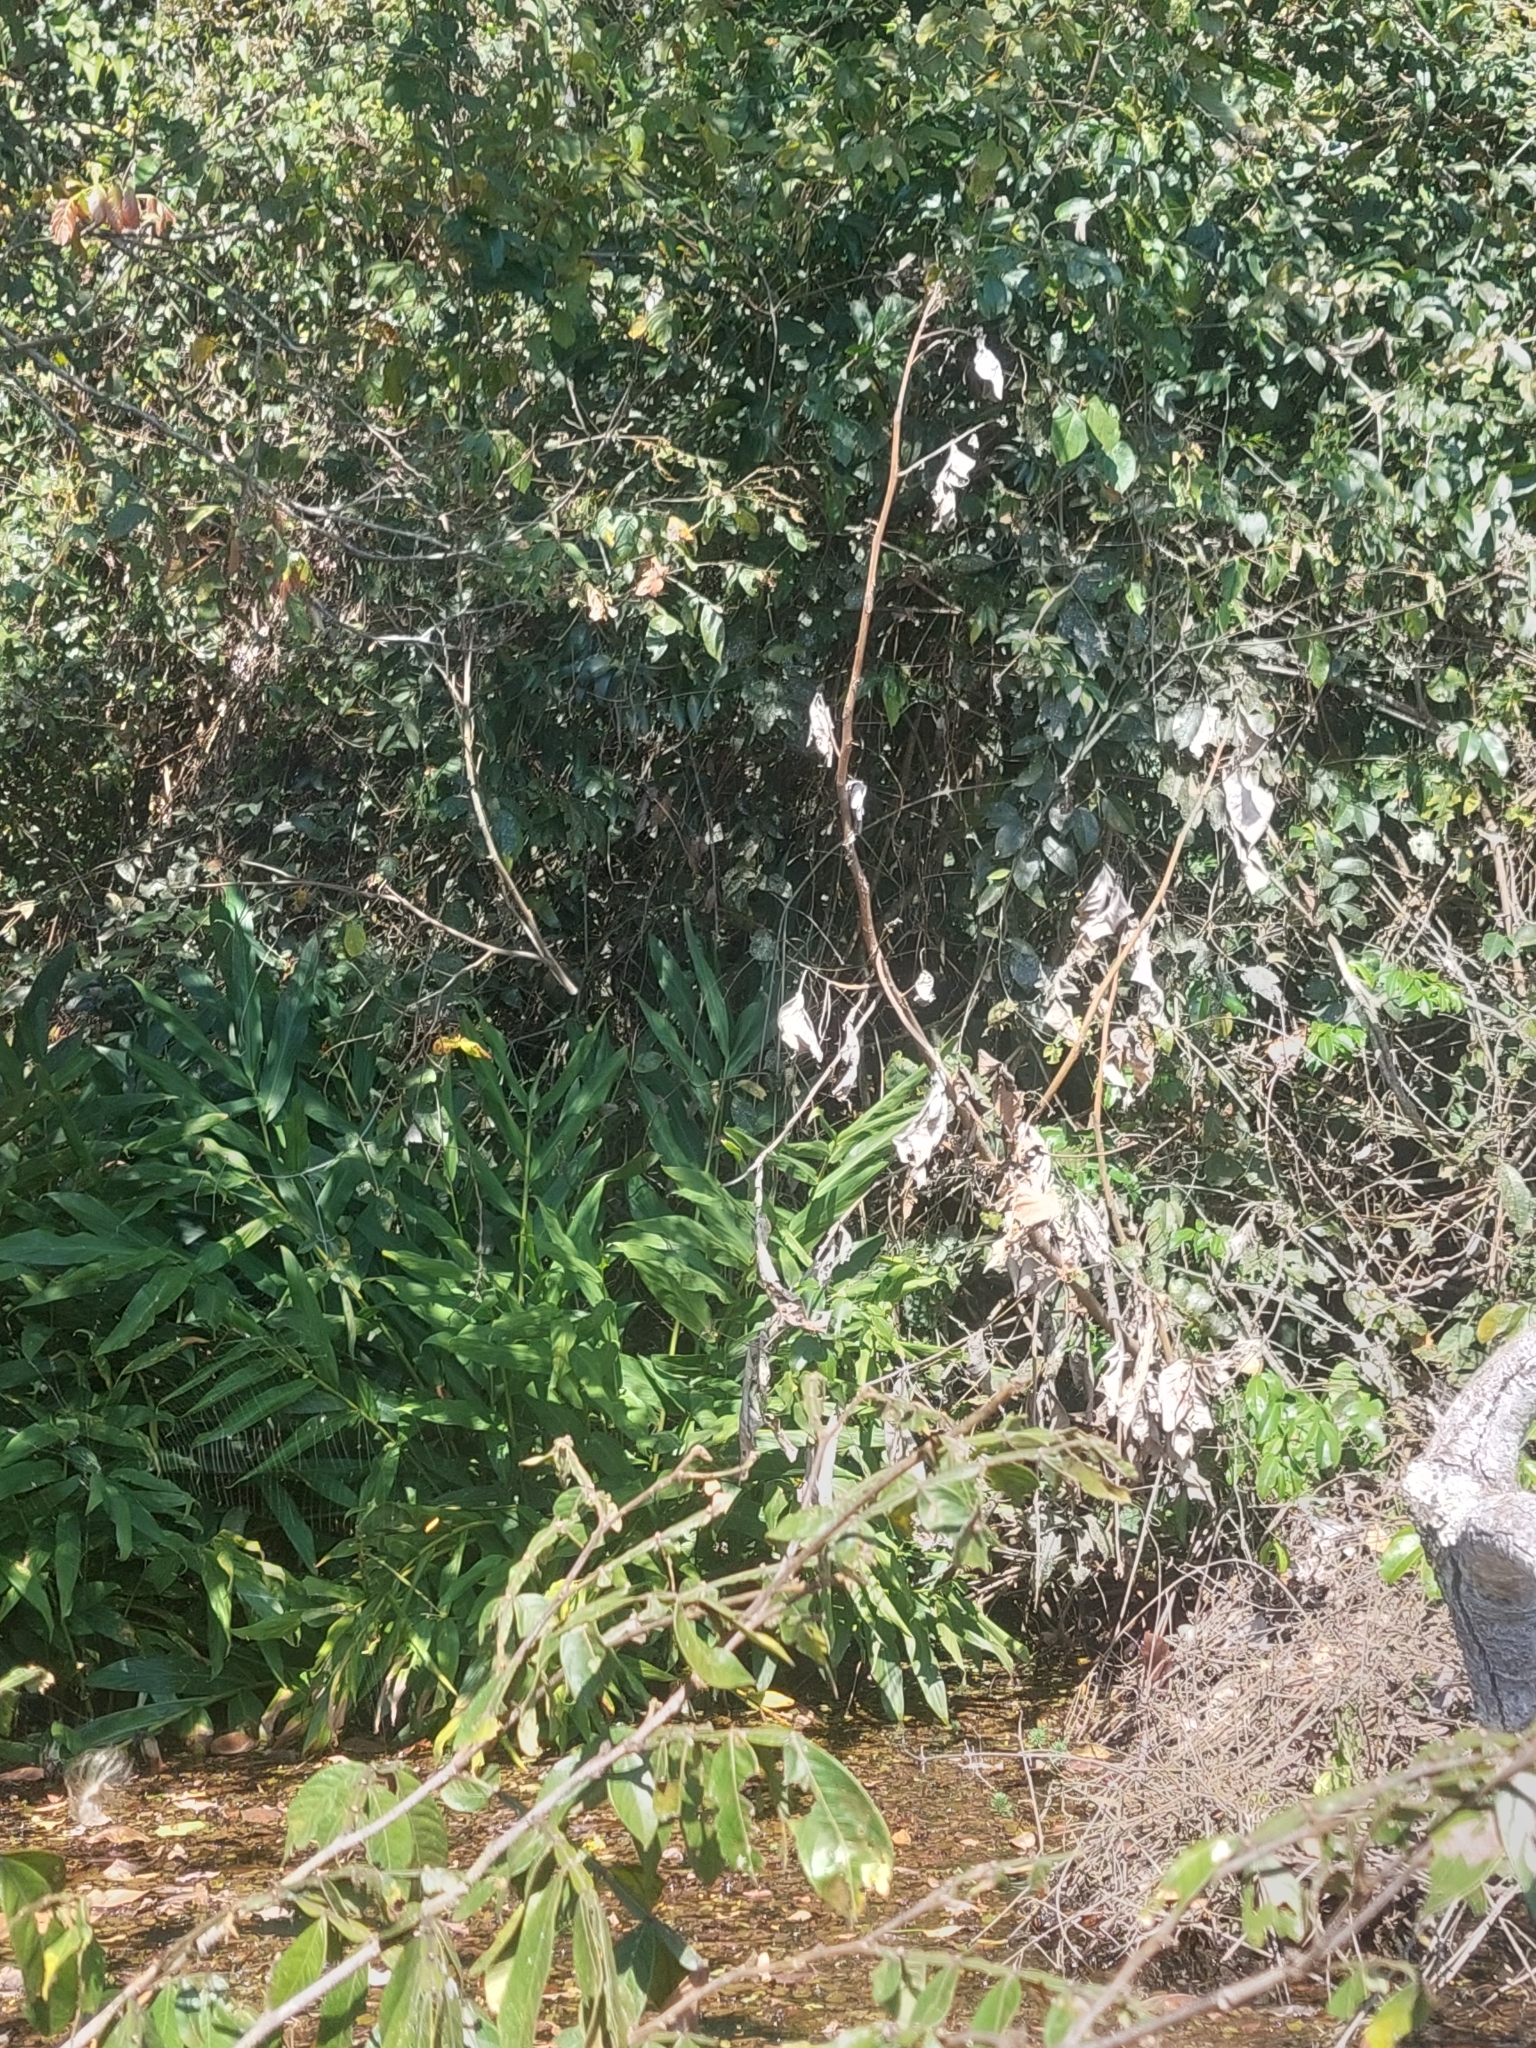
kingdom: Plantae
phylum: Tracheophyta
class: Liliopsida
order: Zingiberales
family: Zingiberaceae
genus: Hedychium
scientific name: Hedychium coronarium
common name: White garland-lily
